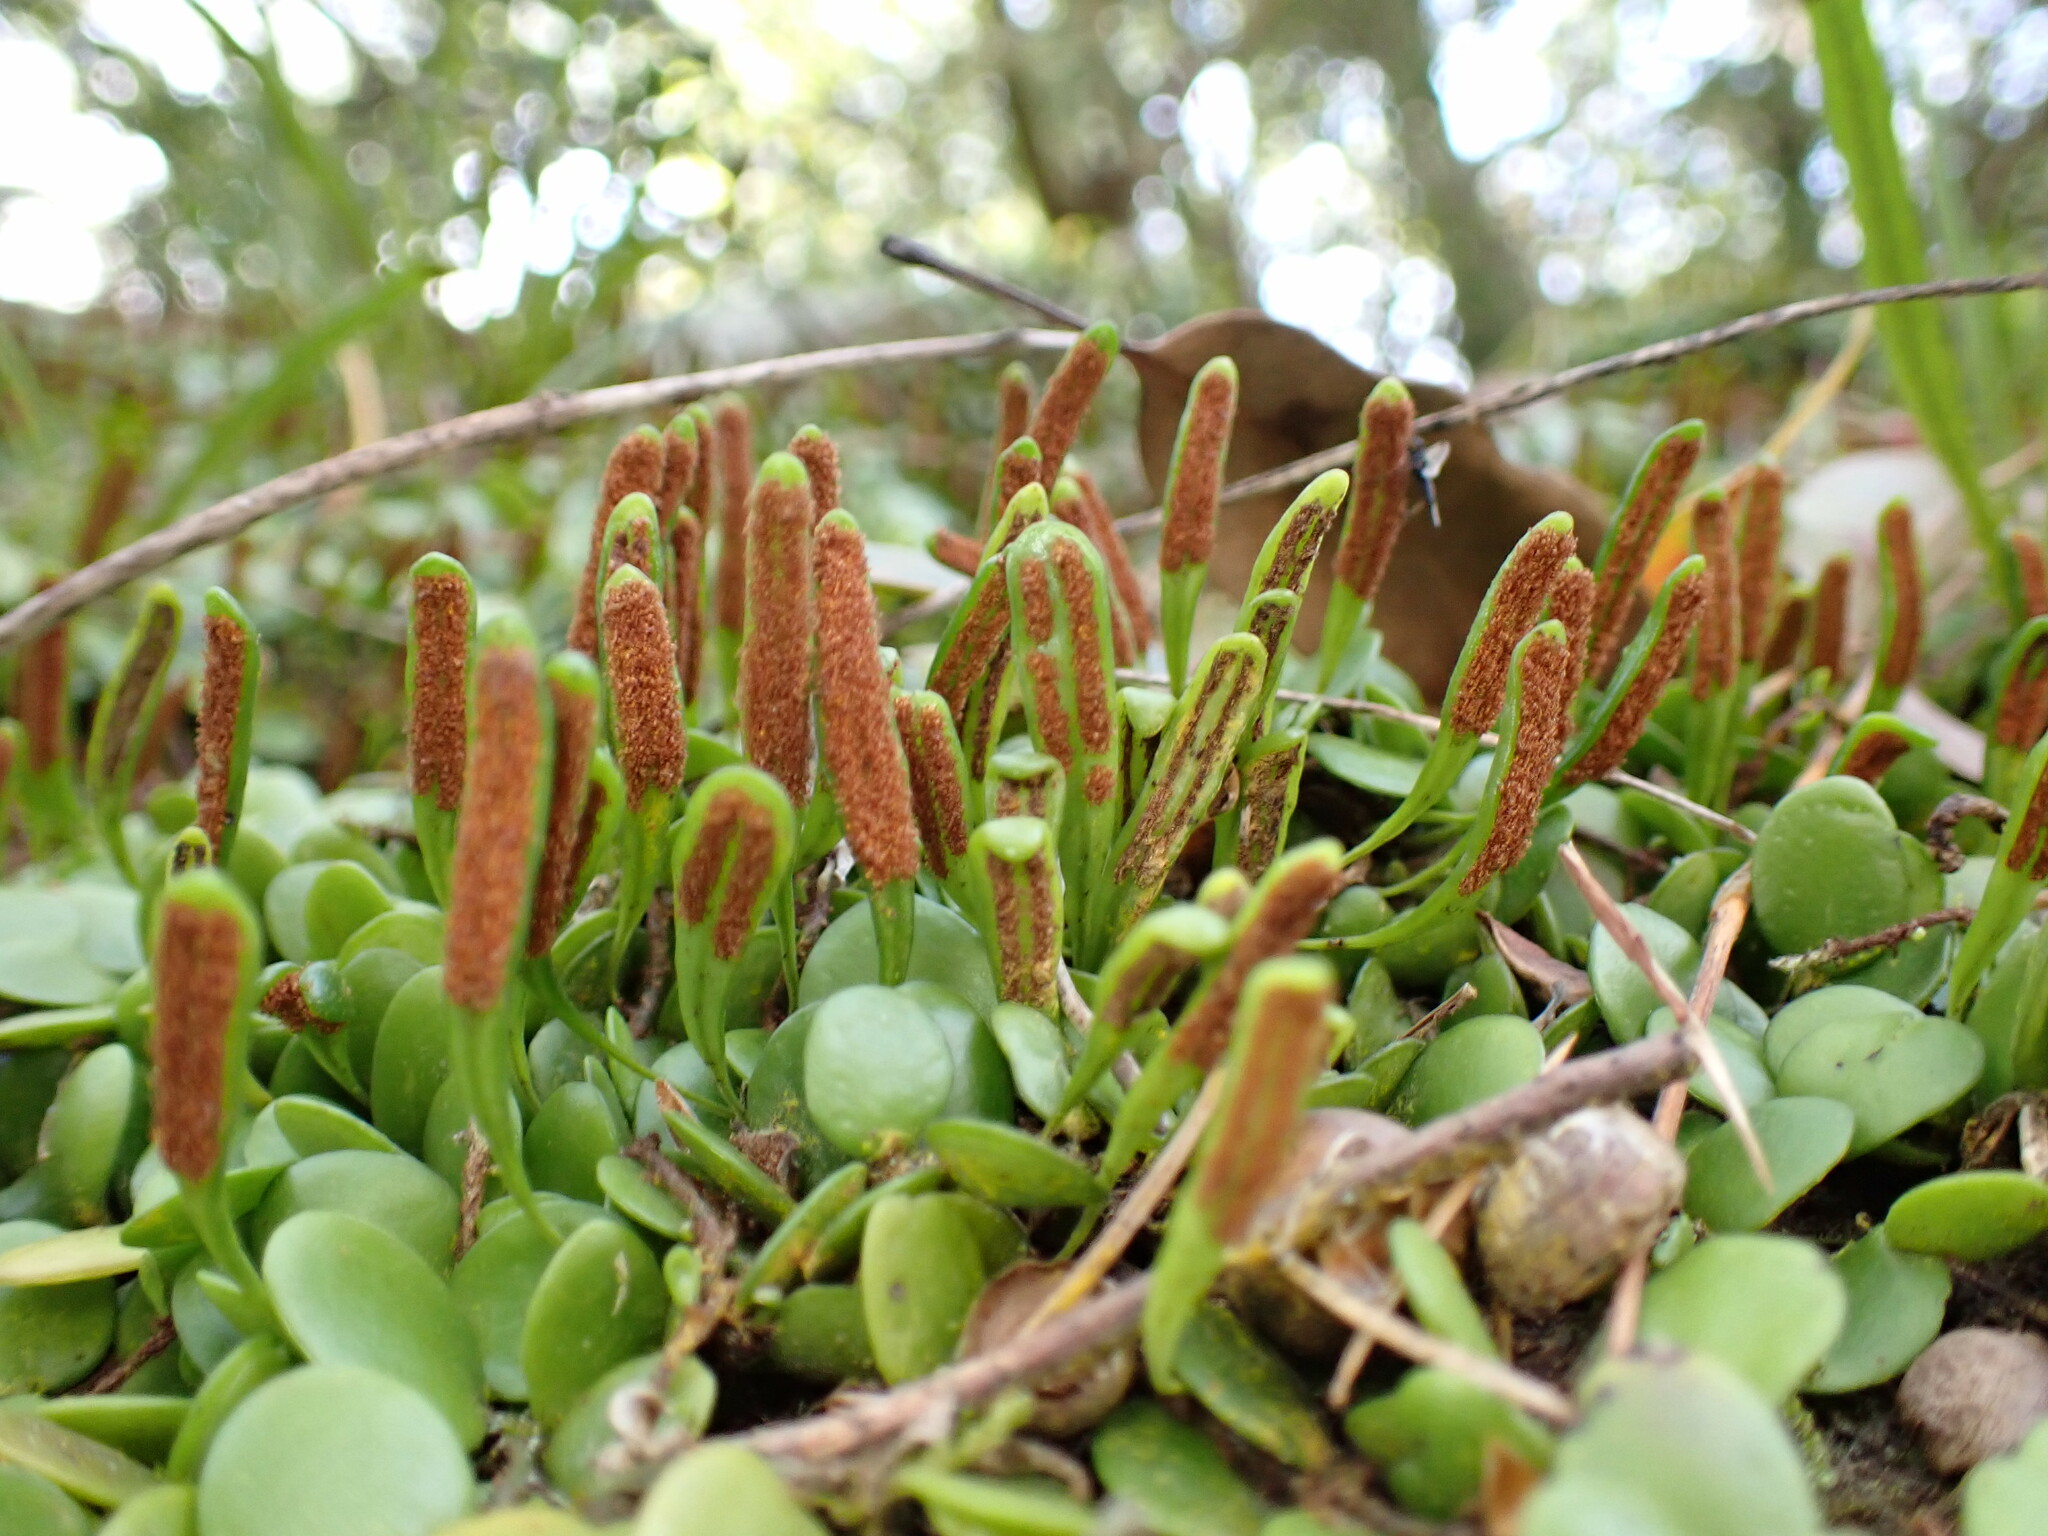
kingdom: Plantae
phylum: Tracheophyta
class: Polypodiopsida
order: Polypodiales
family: Polypodiaceae
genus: Lepisorus
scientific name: Lepisorus microphyllus
